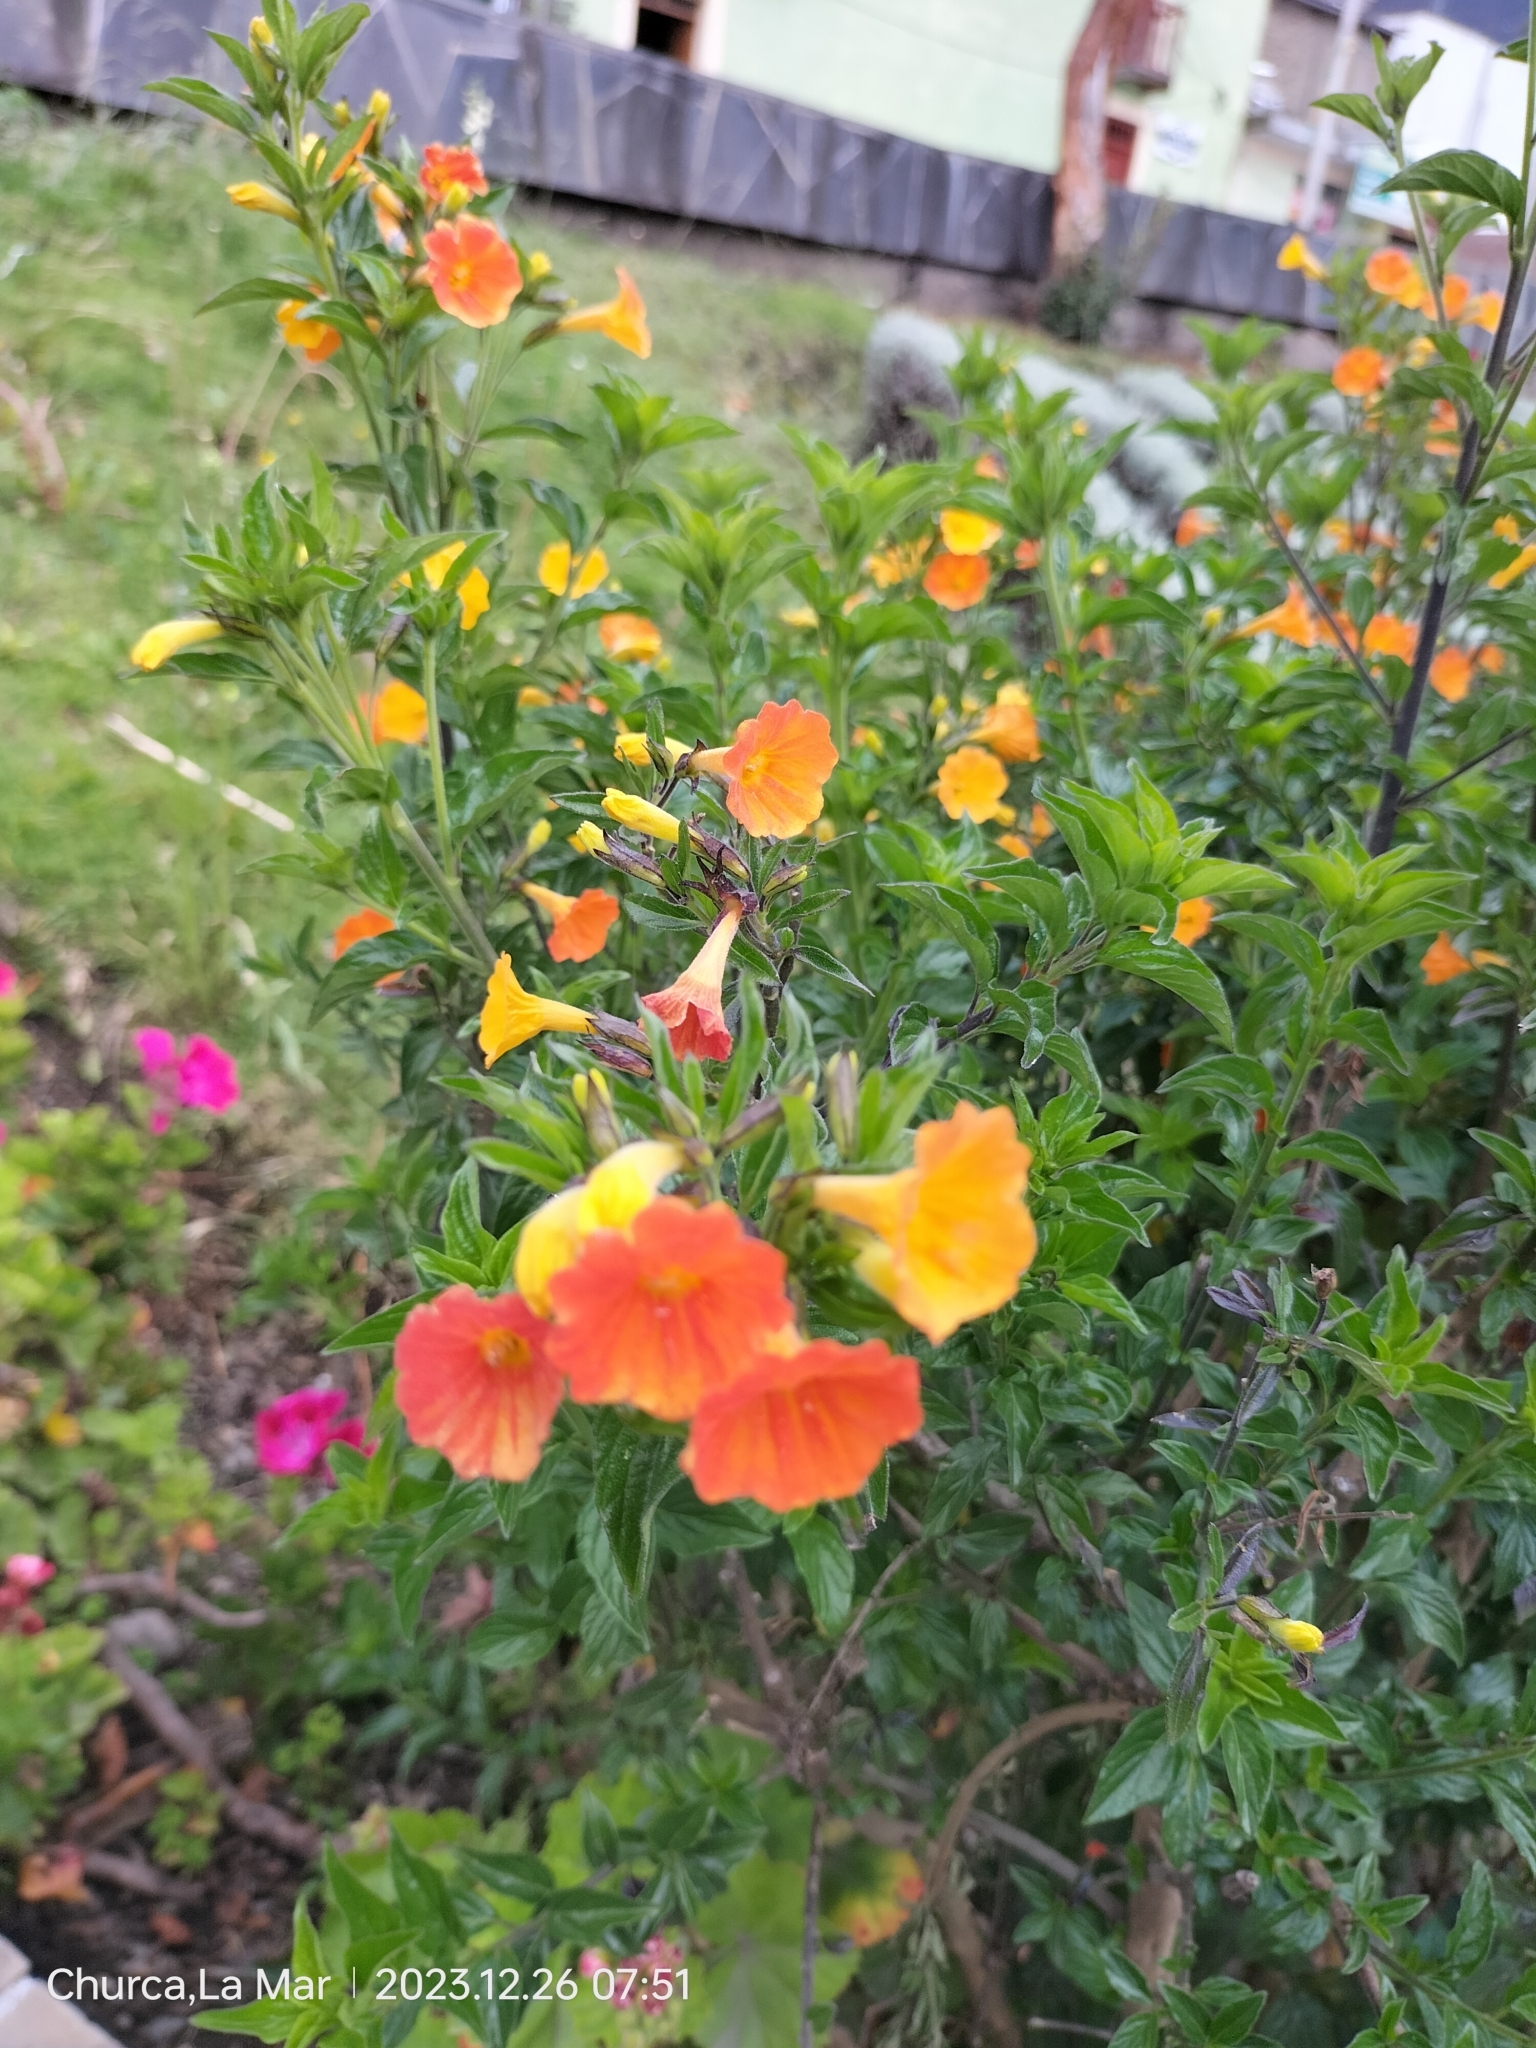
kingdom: Plantae
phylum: Tracheophyta
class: Magnoliopsida
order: Solanales
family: Solanaceae
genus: Streptosolen
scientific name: Streptosolen jamesonii
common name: Marmalade bush
